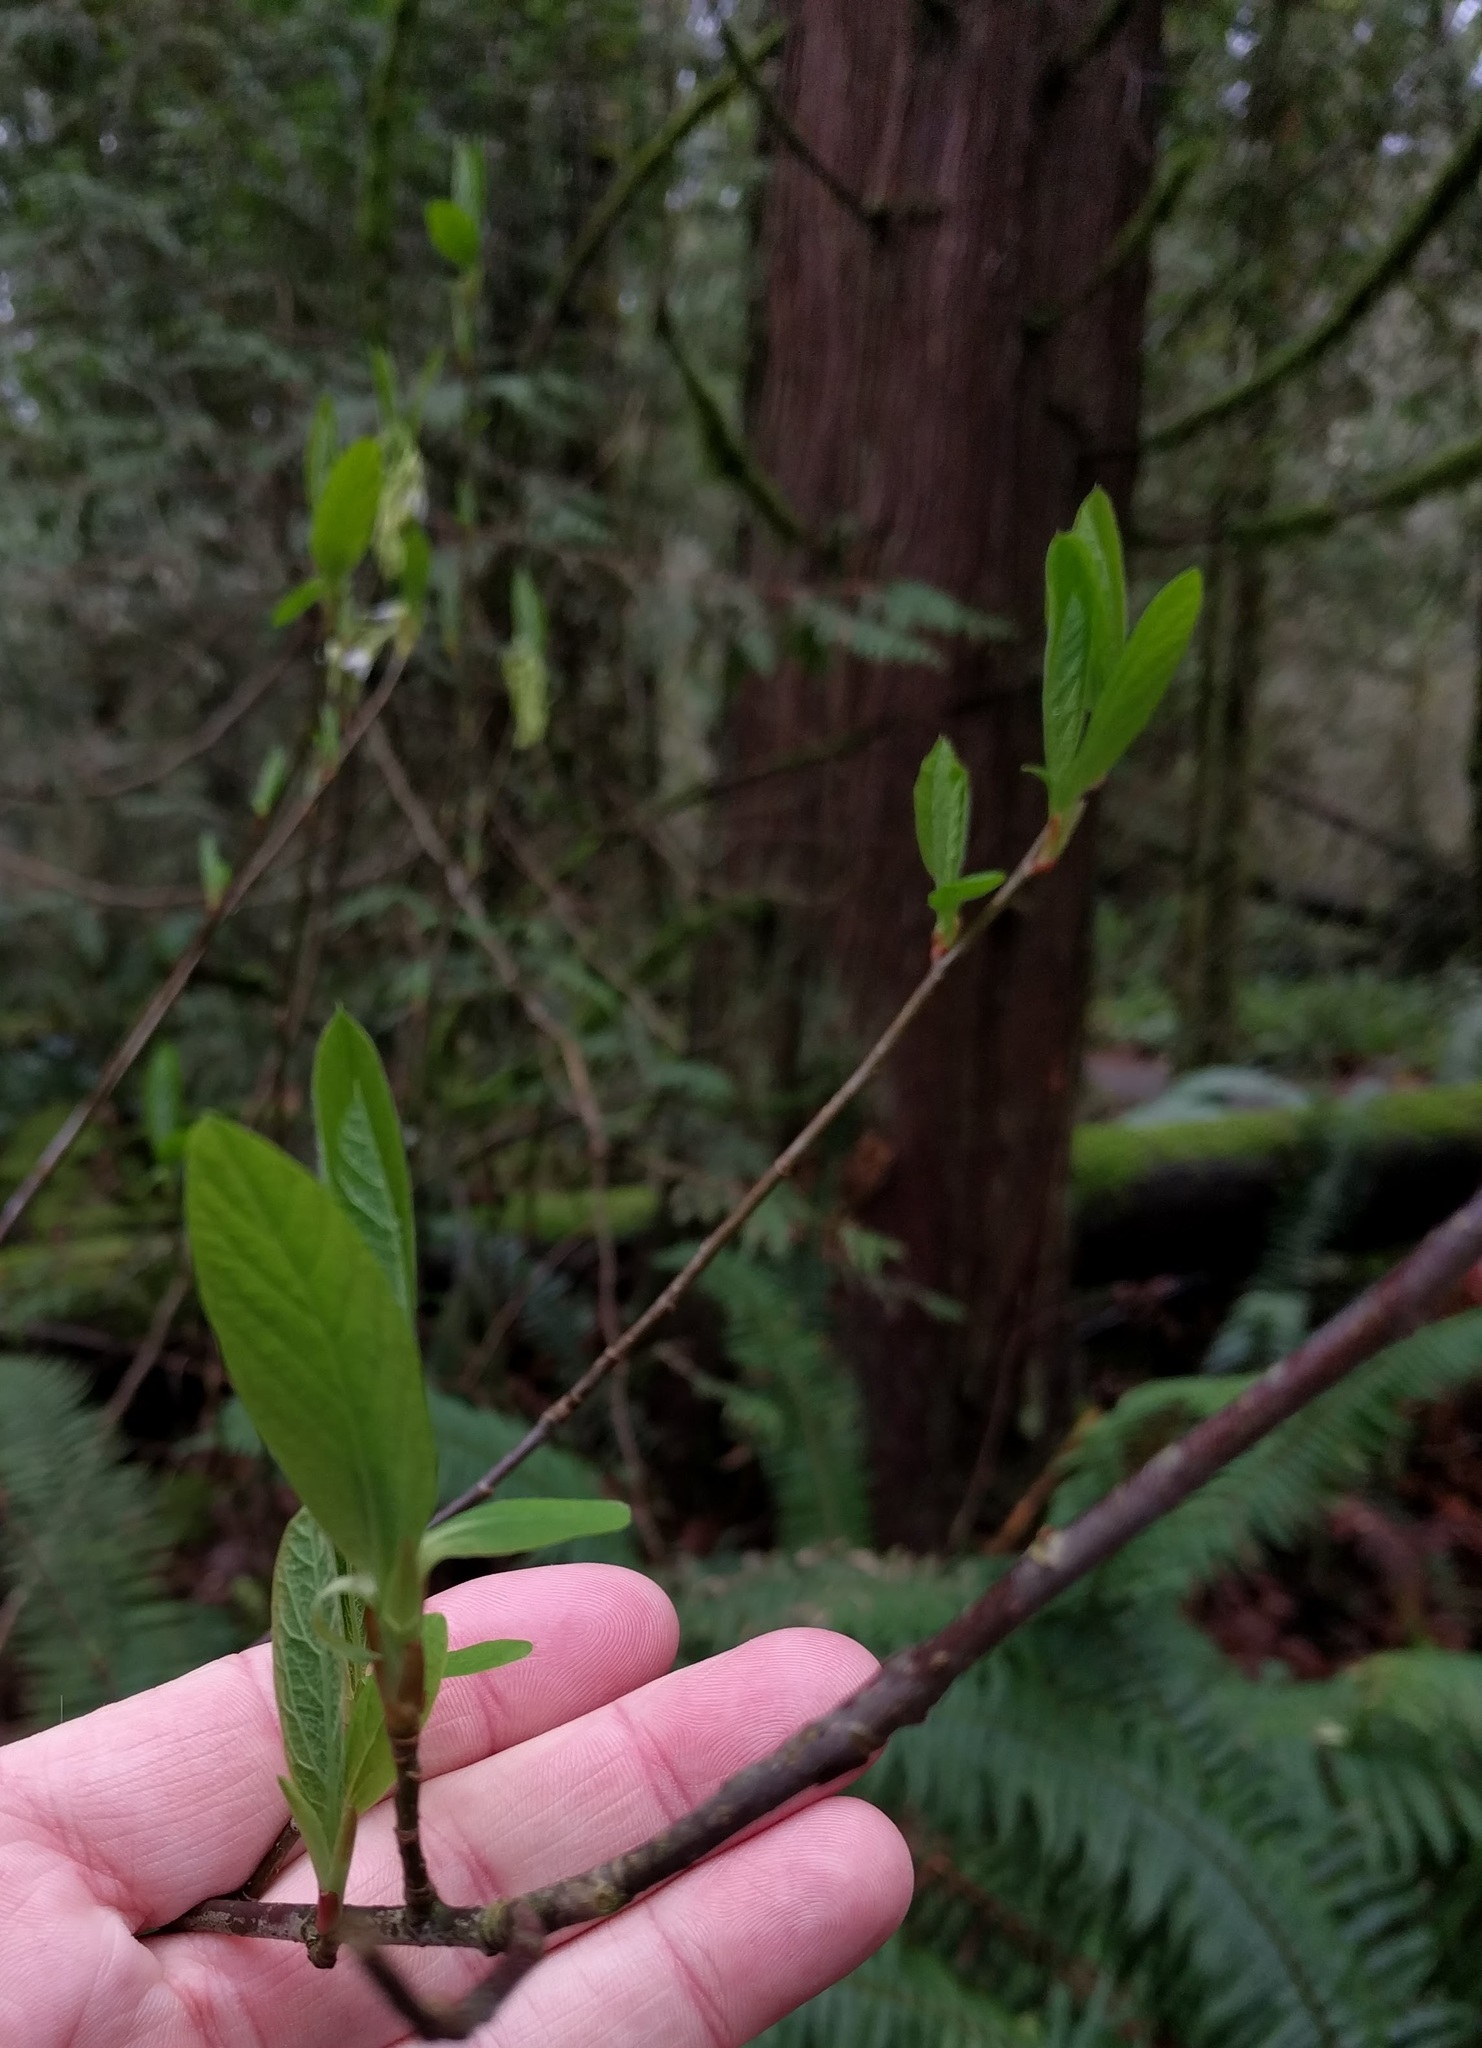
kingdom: Plantae
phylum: Tracheophyta
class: Magnoliopsida
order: Rosales
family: Rosaceae
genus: Oemleria
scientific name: Oemleria cerasiformis
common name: Osoberry
